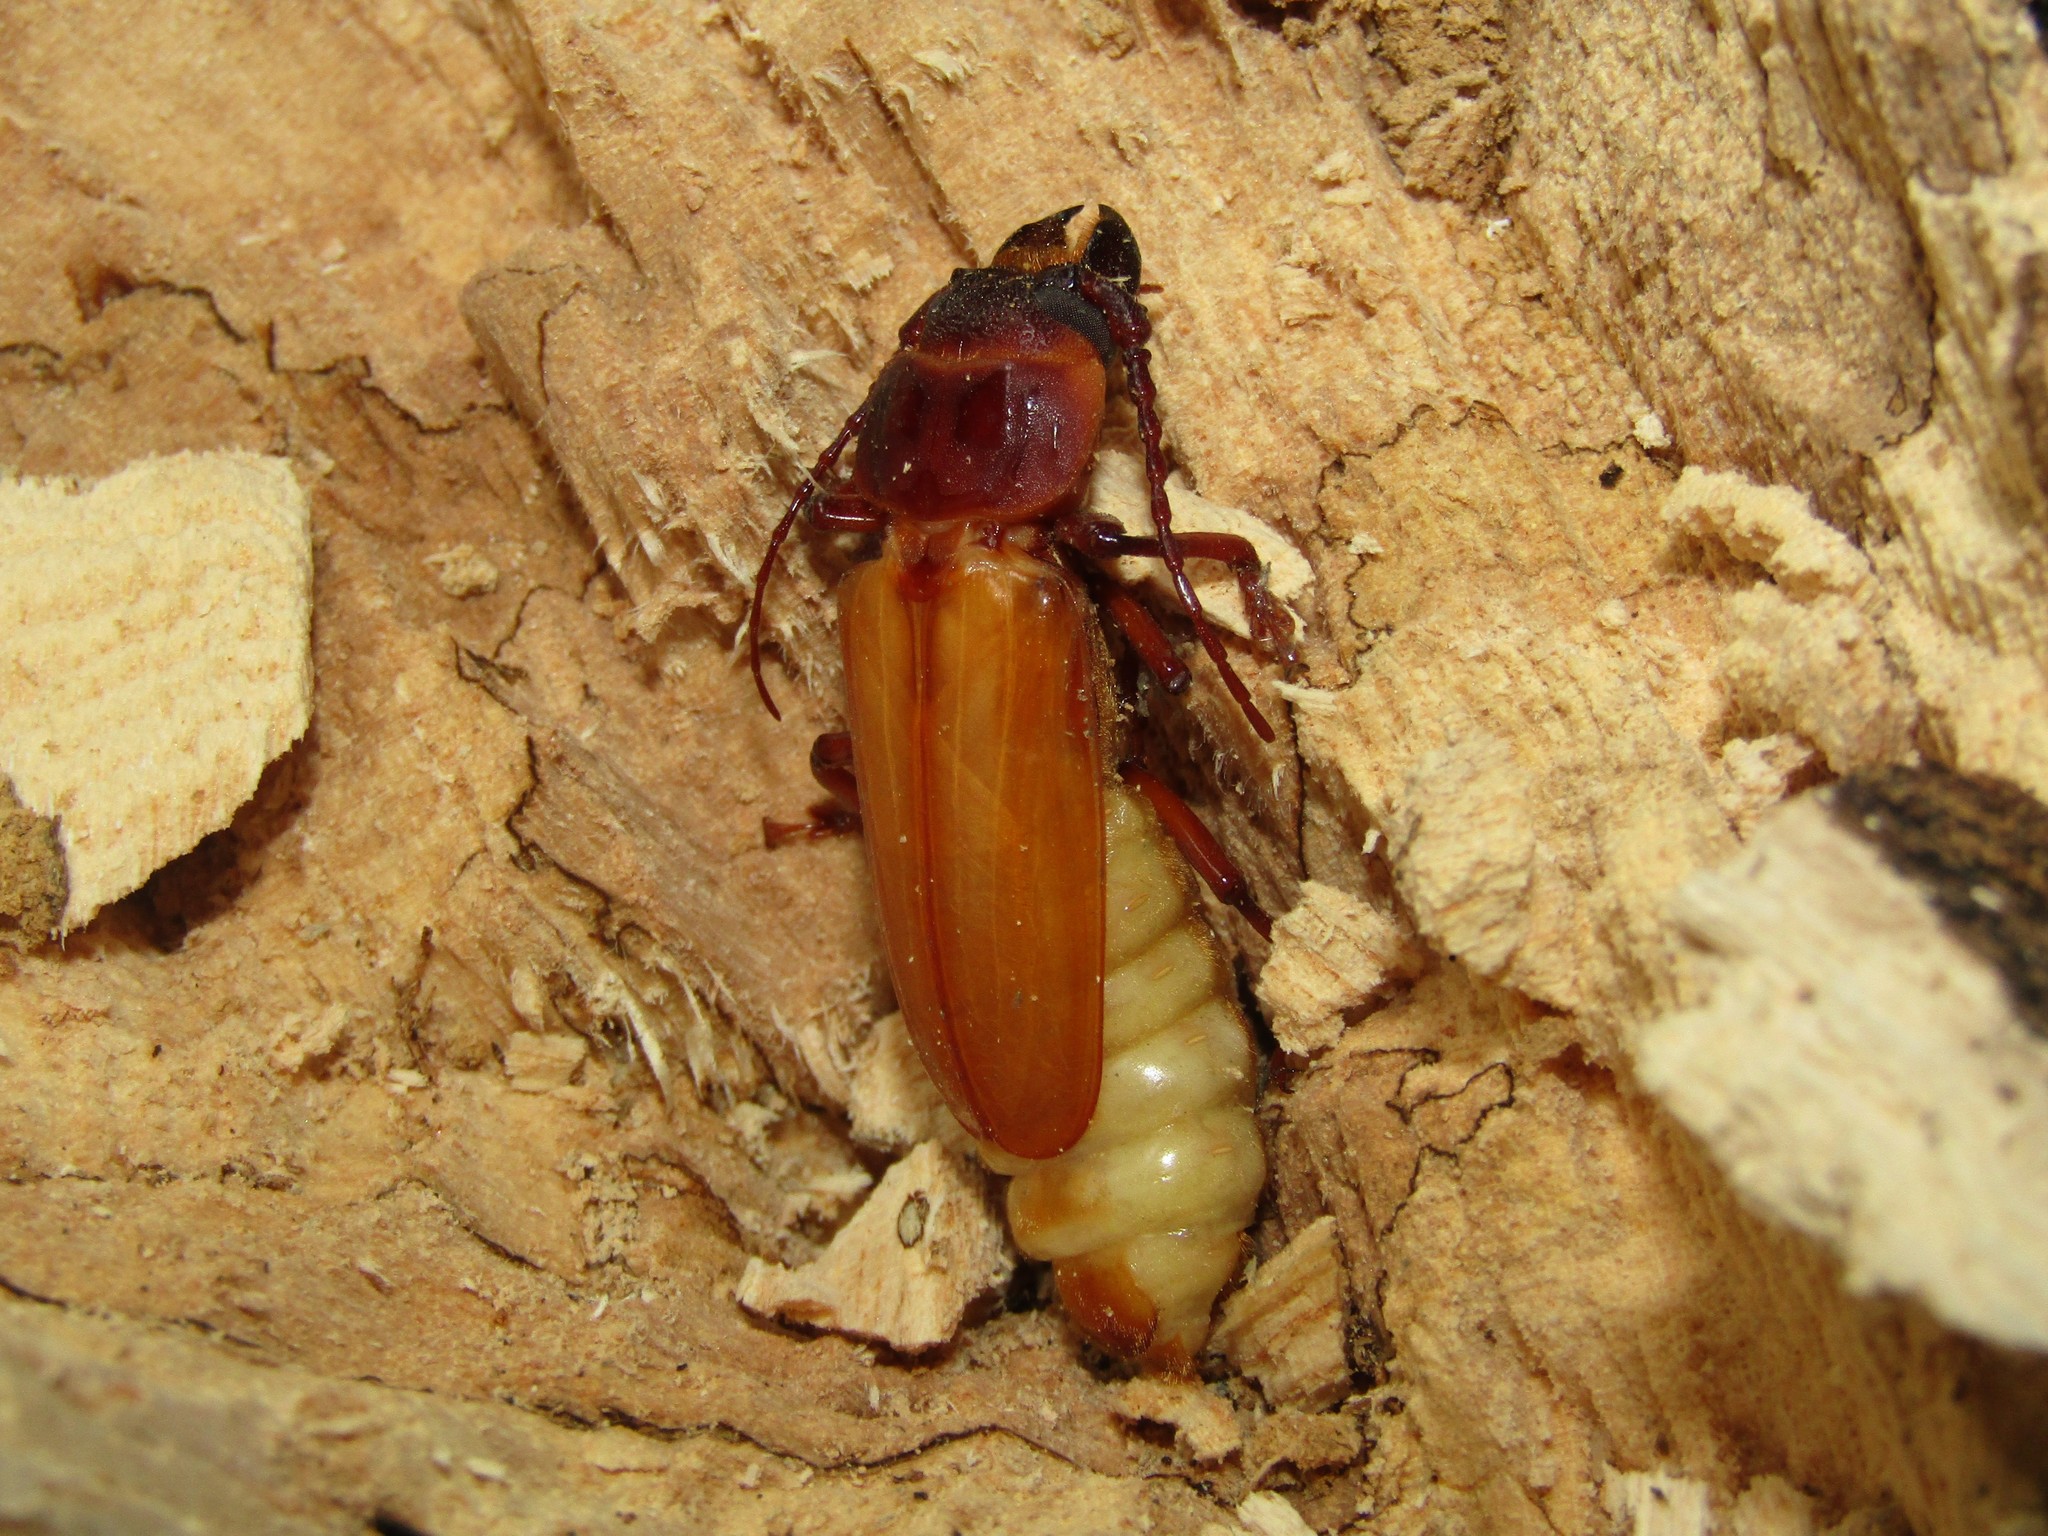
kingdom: Animalia
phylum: Arthropoda
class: Insecta
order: Coleoptera
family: Cerambycidae
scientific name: Cerambycidae
